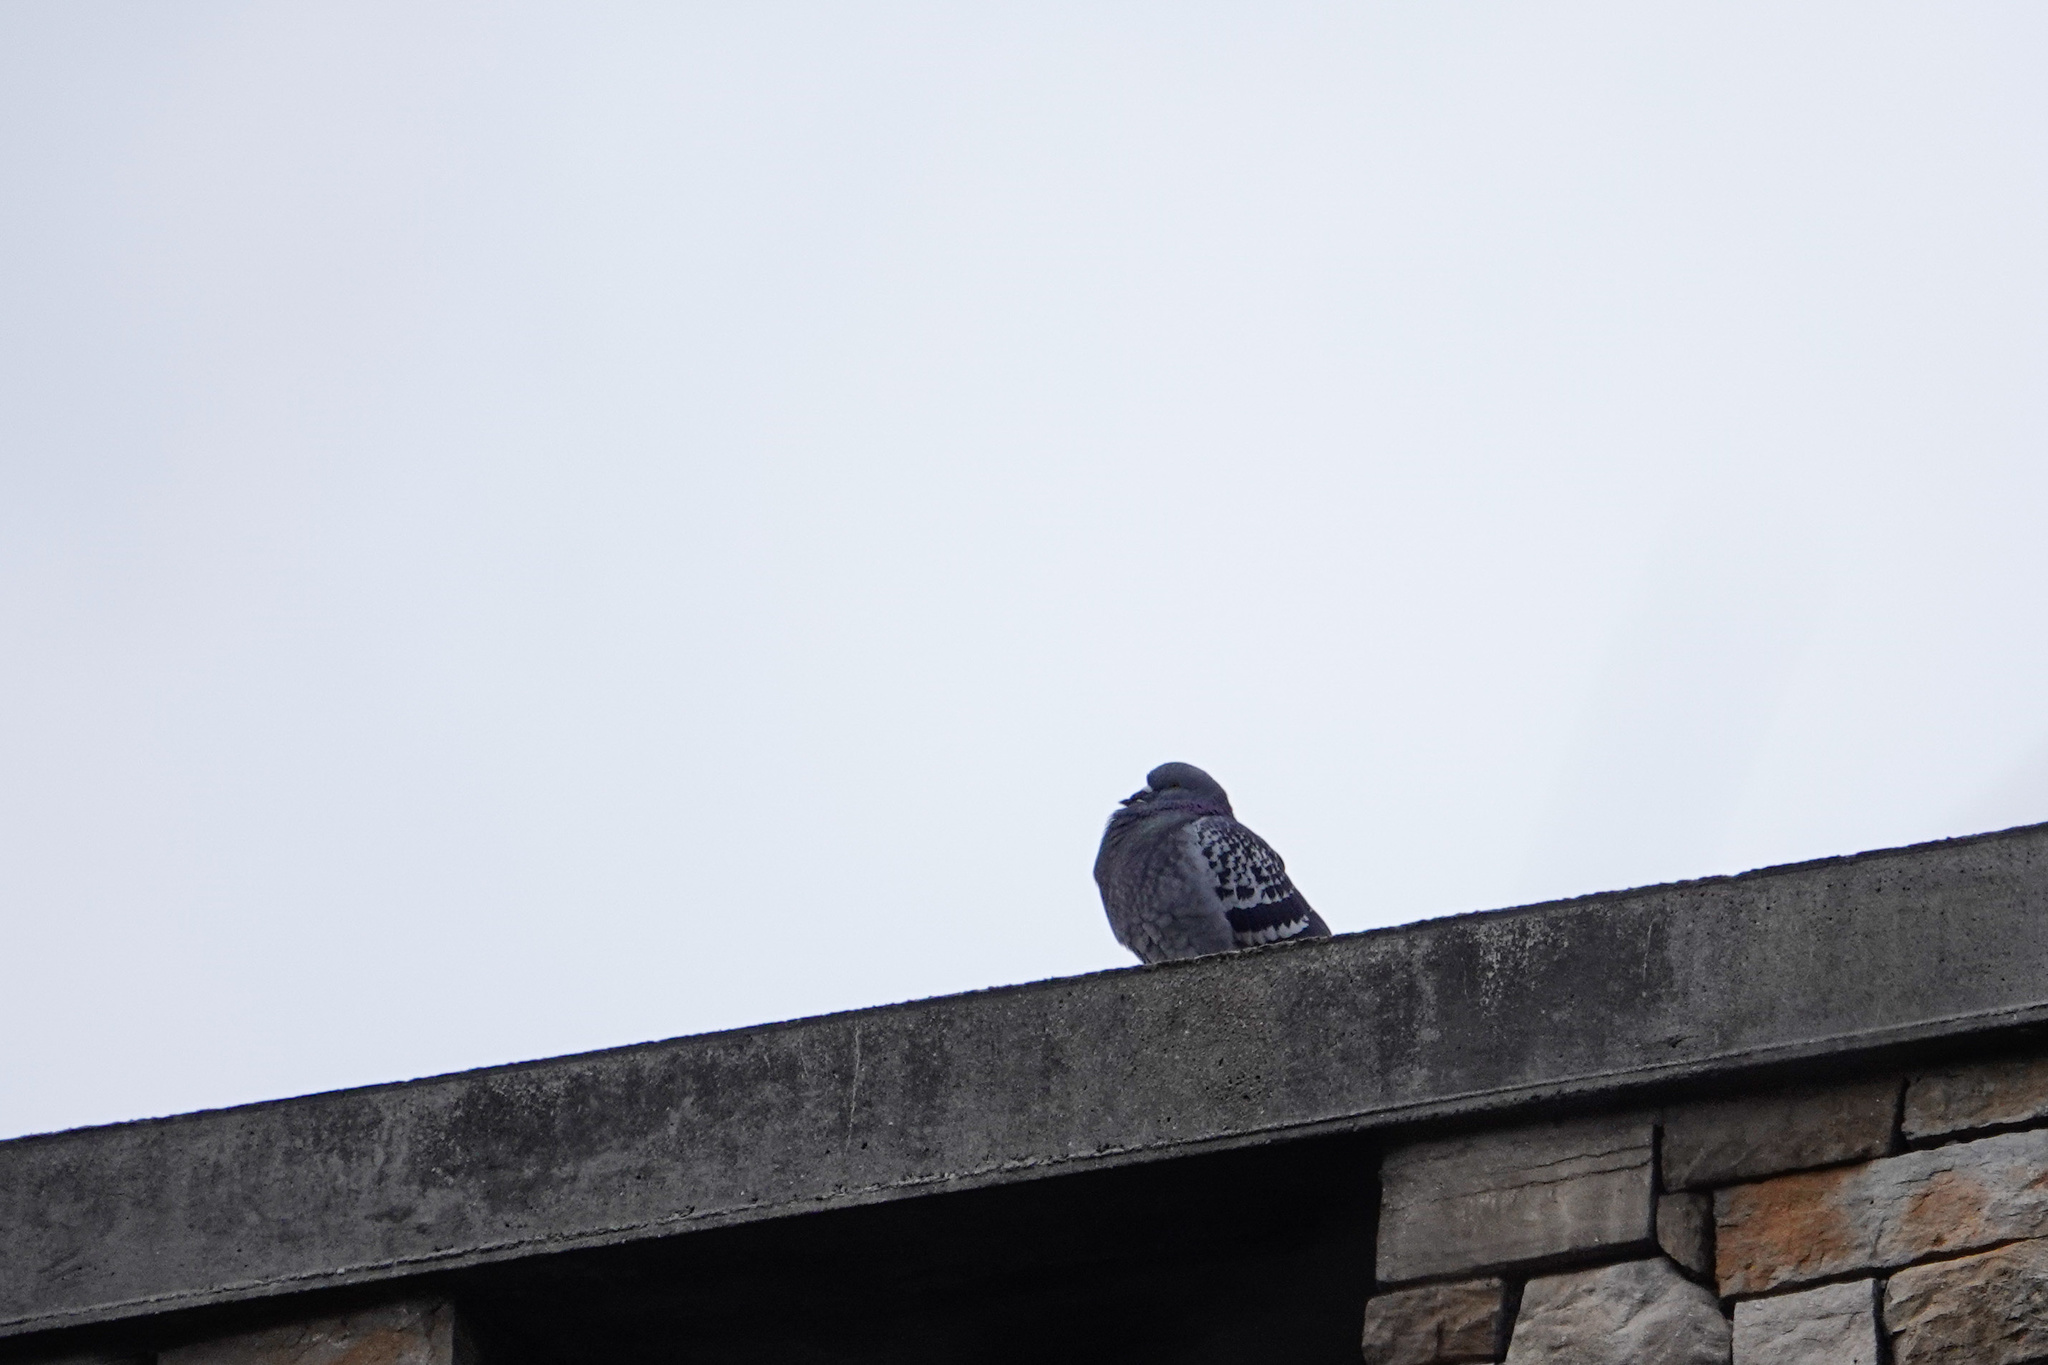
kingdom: Animalia
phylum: Chordata
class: Aves
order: Columbiformes
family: Columbidae
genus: Columba
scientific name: Columba livia
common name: Rock pigeon
